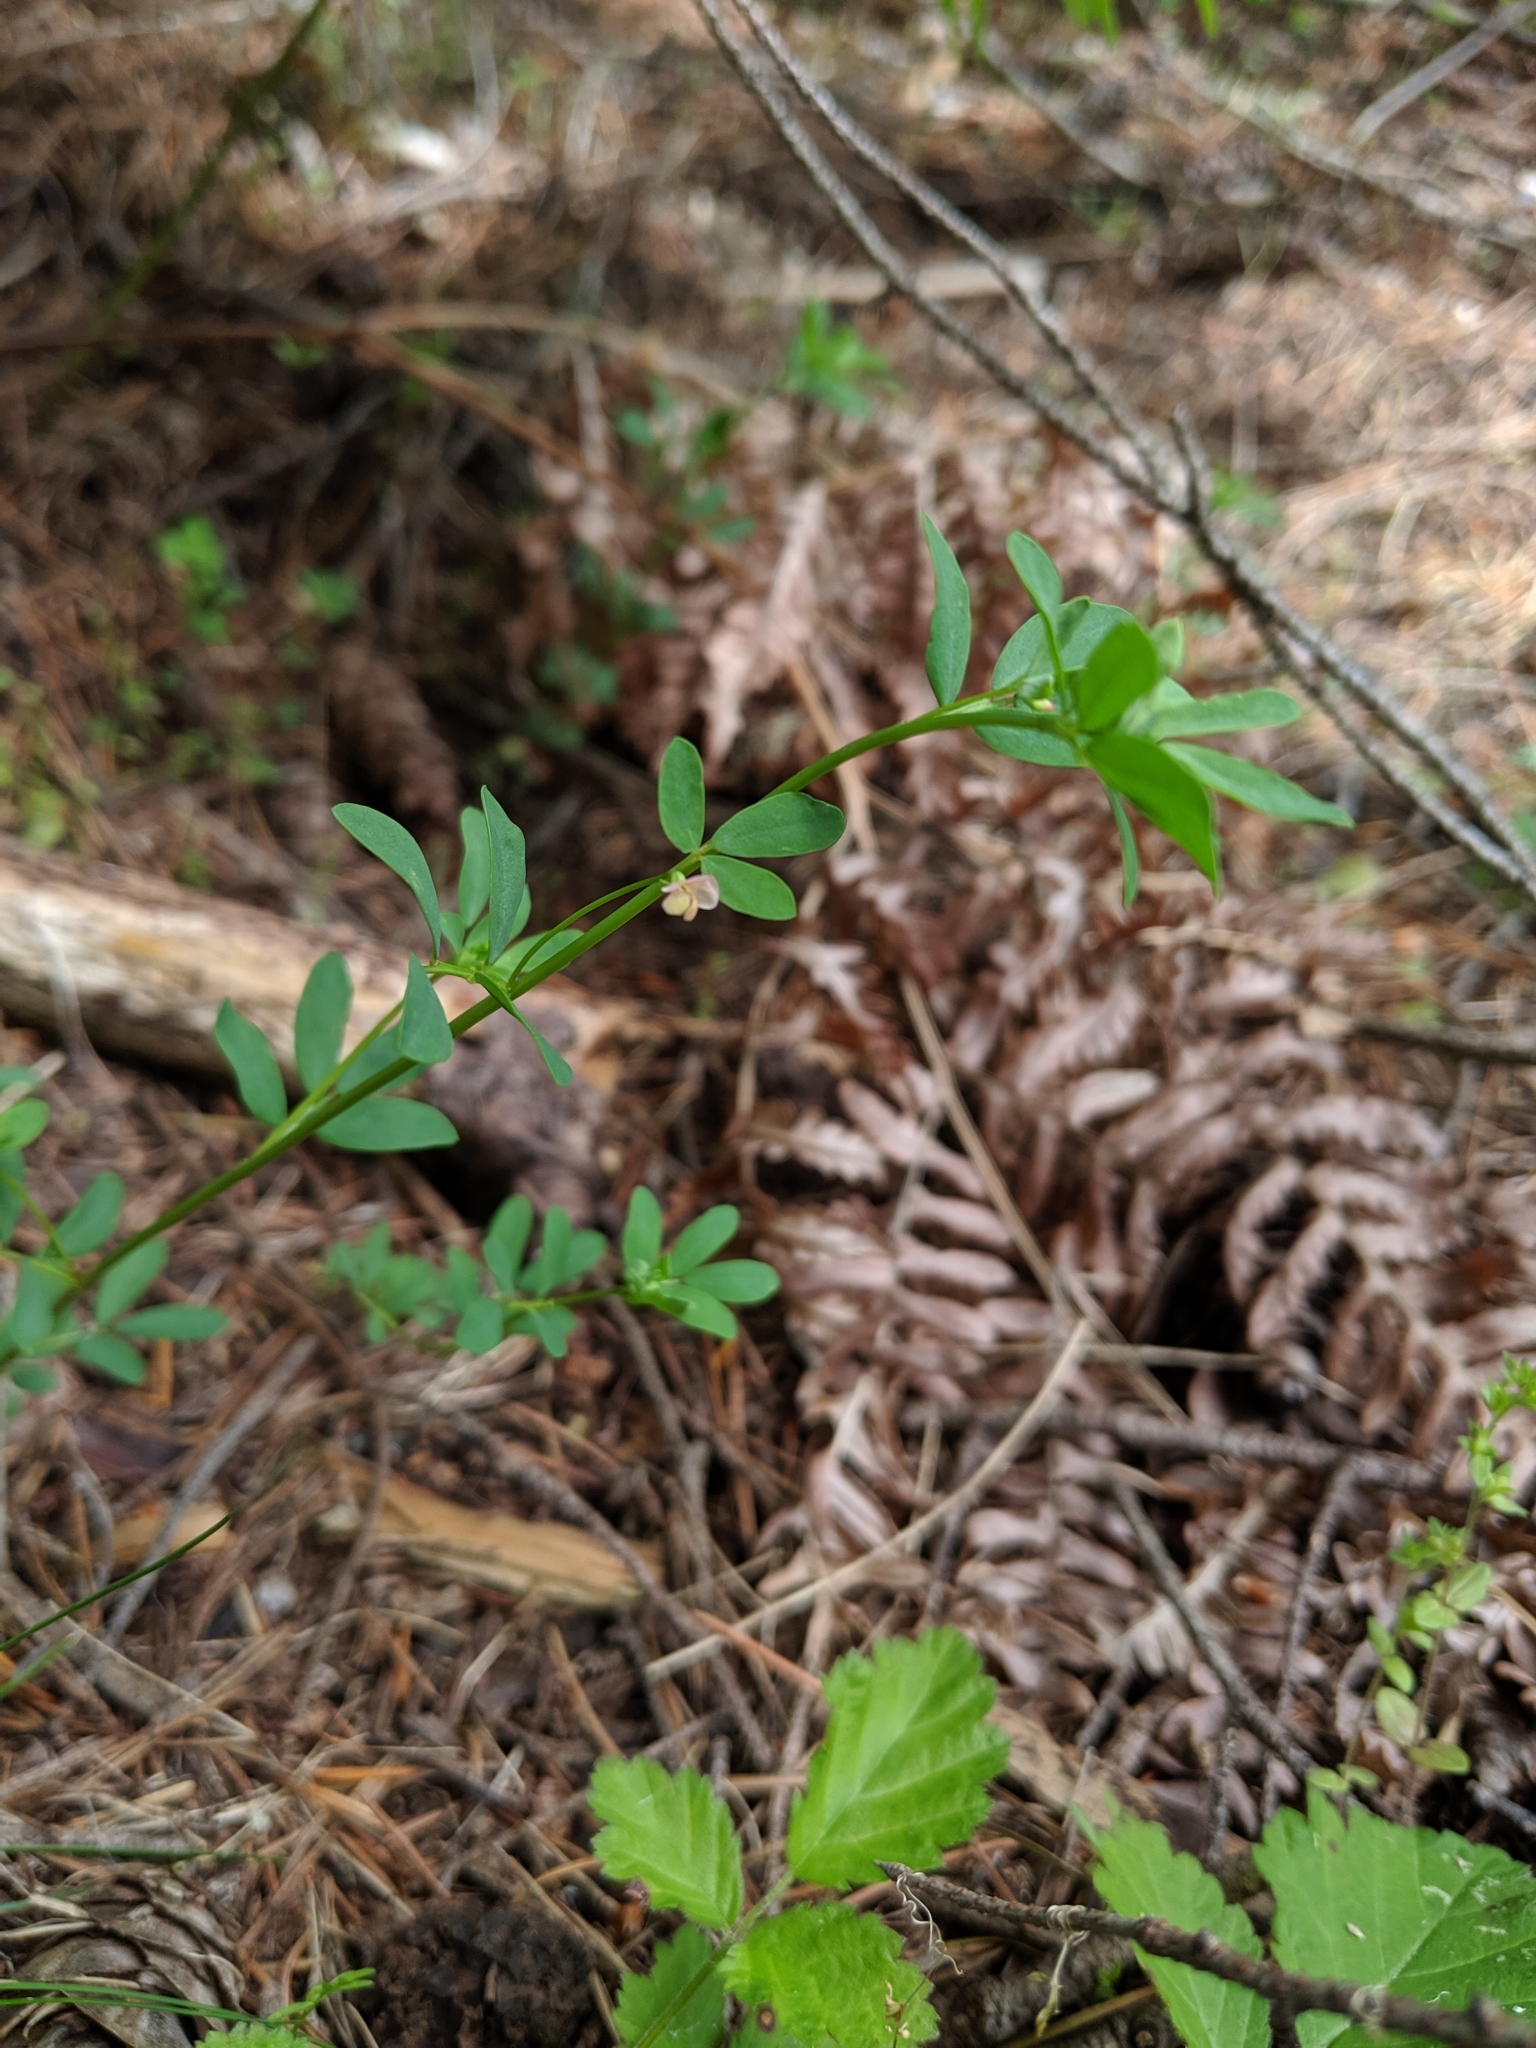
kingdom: Plantae
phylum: Tracheophyta
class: Magnoliopsida
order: Fabales
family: Fabaceae
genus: Acmispon
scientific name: Acmispon parviflorus
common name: Desert deer-vetch
